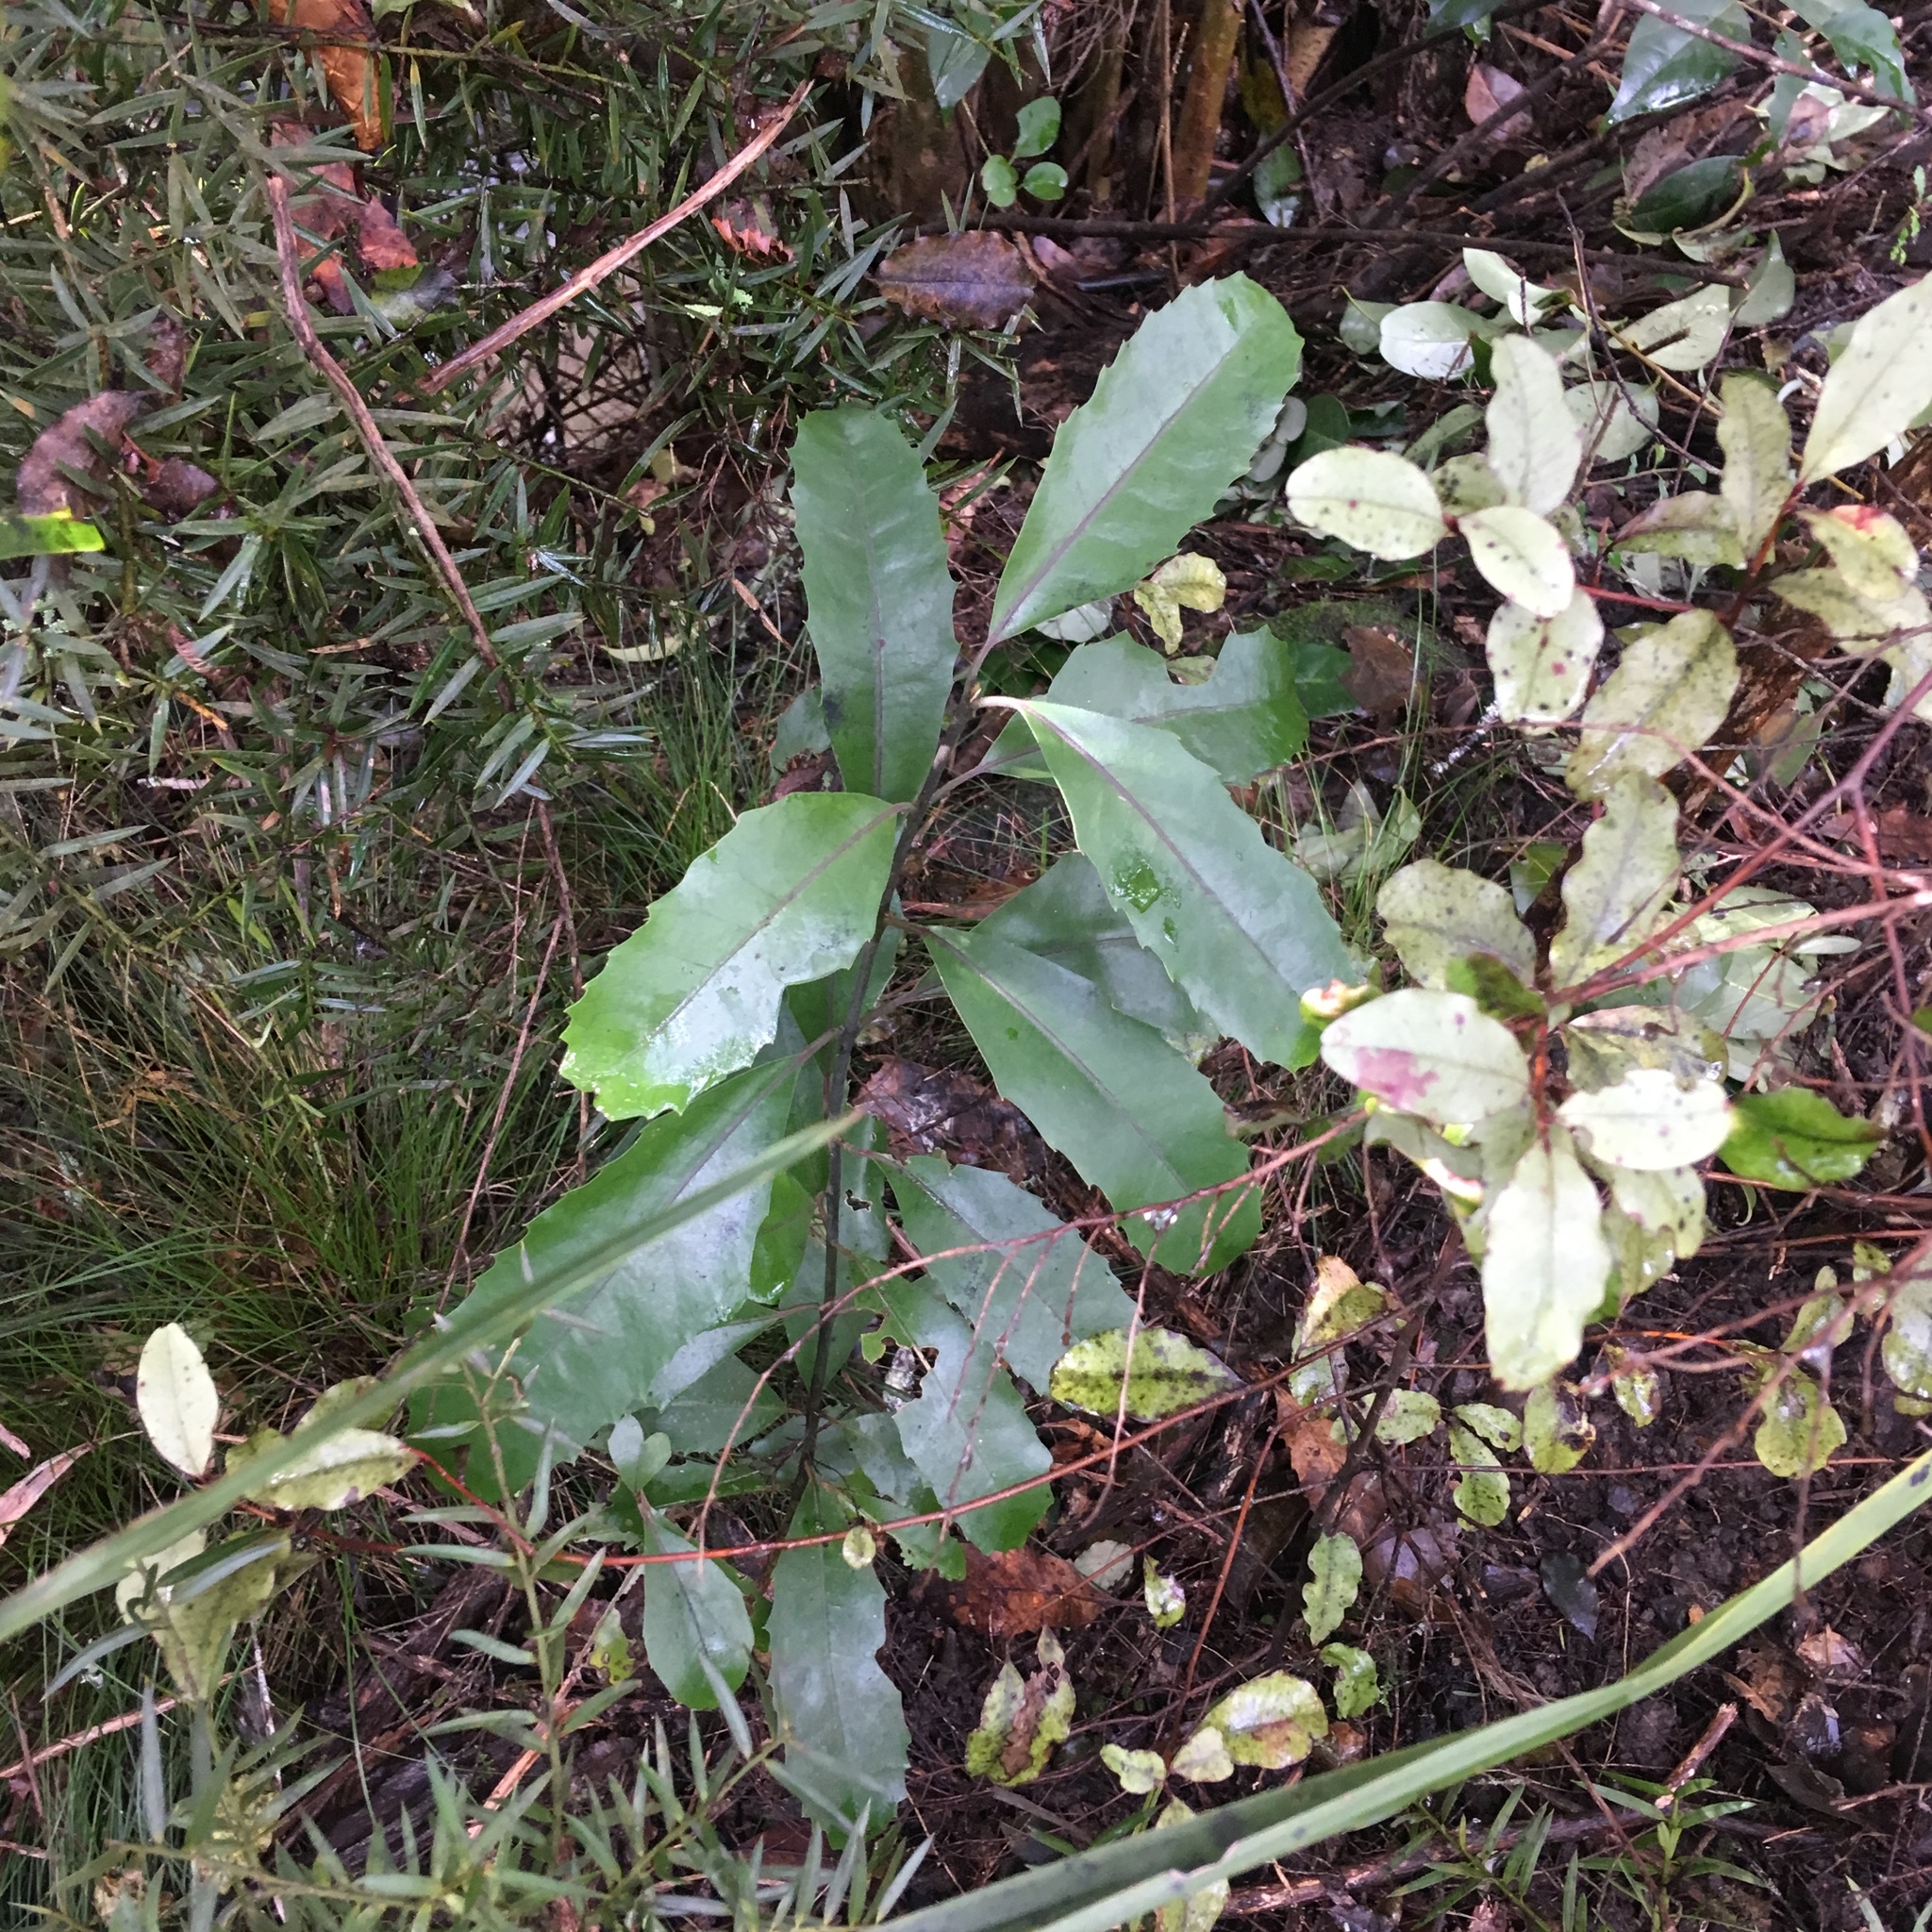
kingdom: Plantae
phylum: Tracheophyta
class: Magnoliopsida
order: Laurales
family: Monimiaceae
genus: Hedycarya
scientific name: Hedycarya arborea
